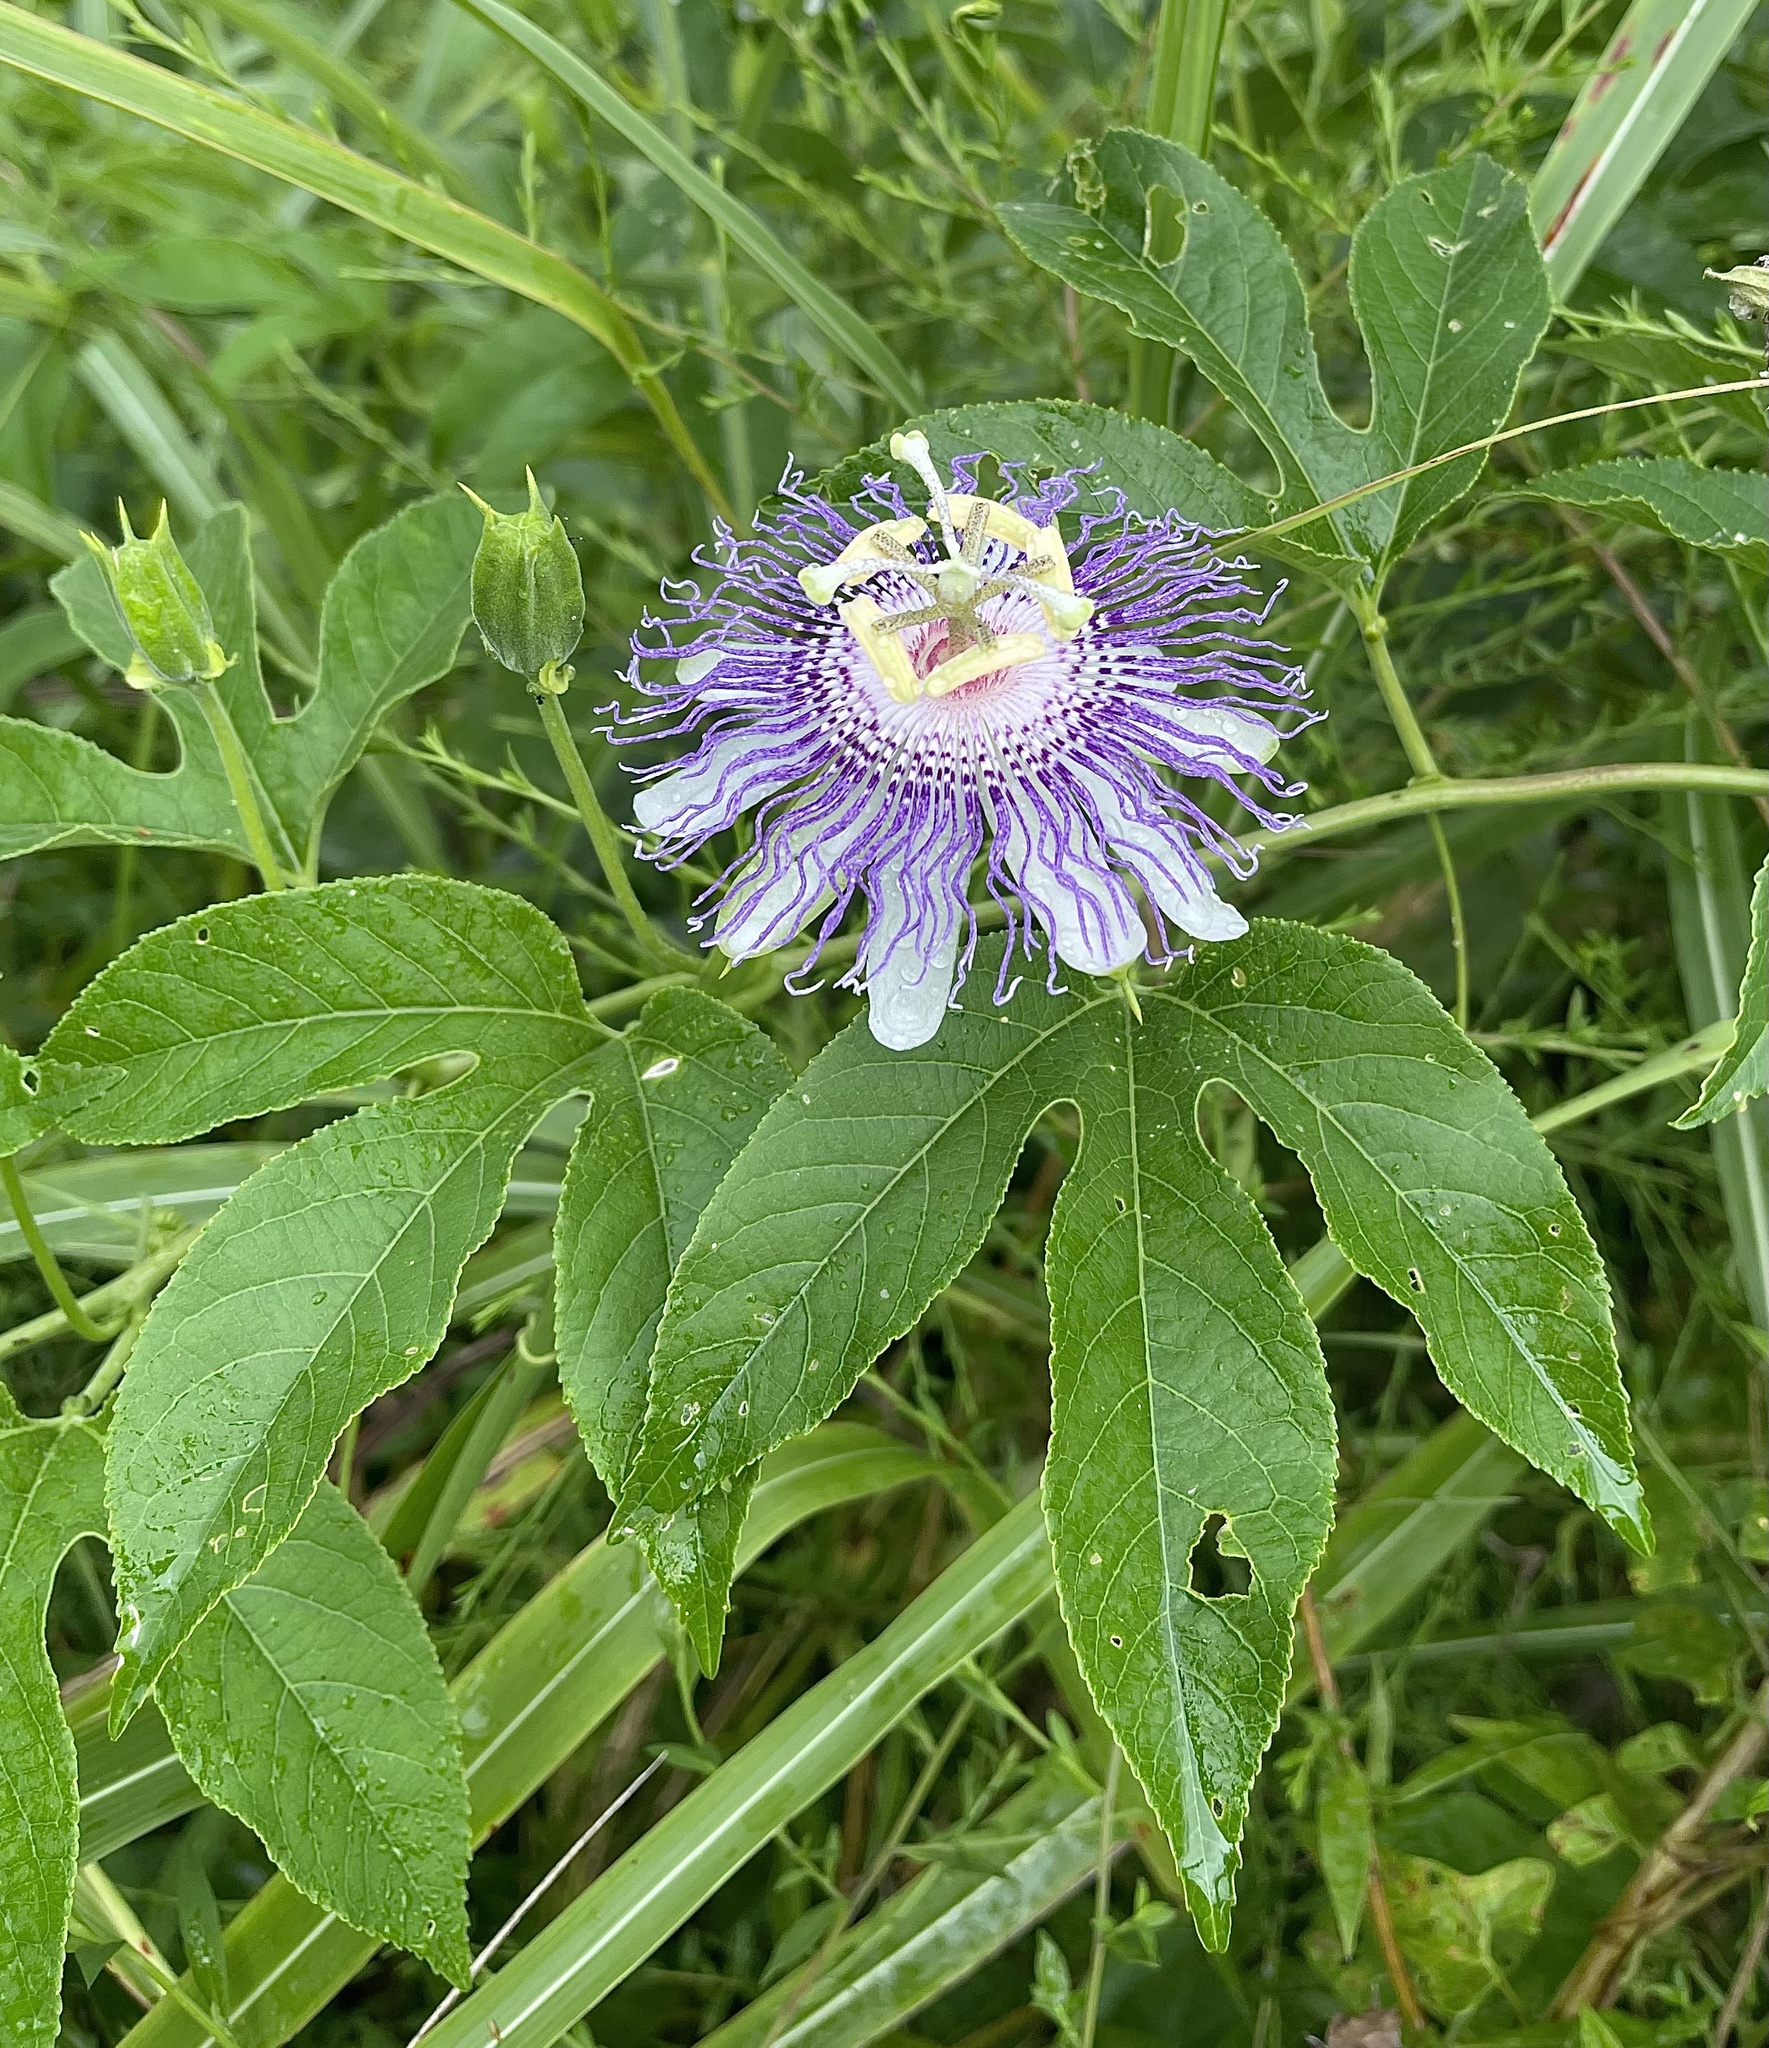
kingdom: Plantae
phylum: Tracheophyta
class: Magnoliopsida
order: Malpighiales
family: Passifloraceae
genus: Passiflora
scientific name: Passiflora incarnata
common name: Apricot-vine
